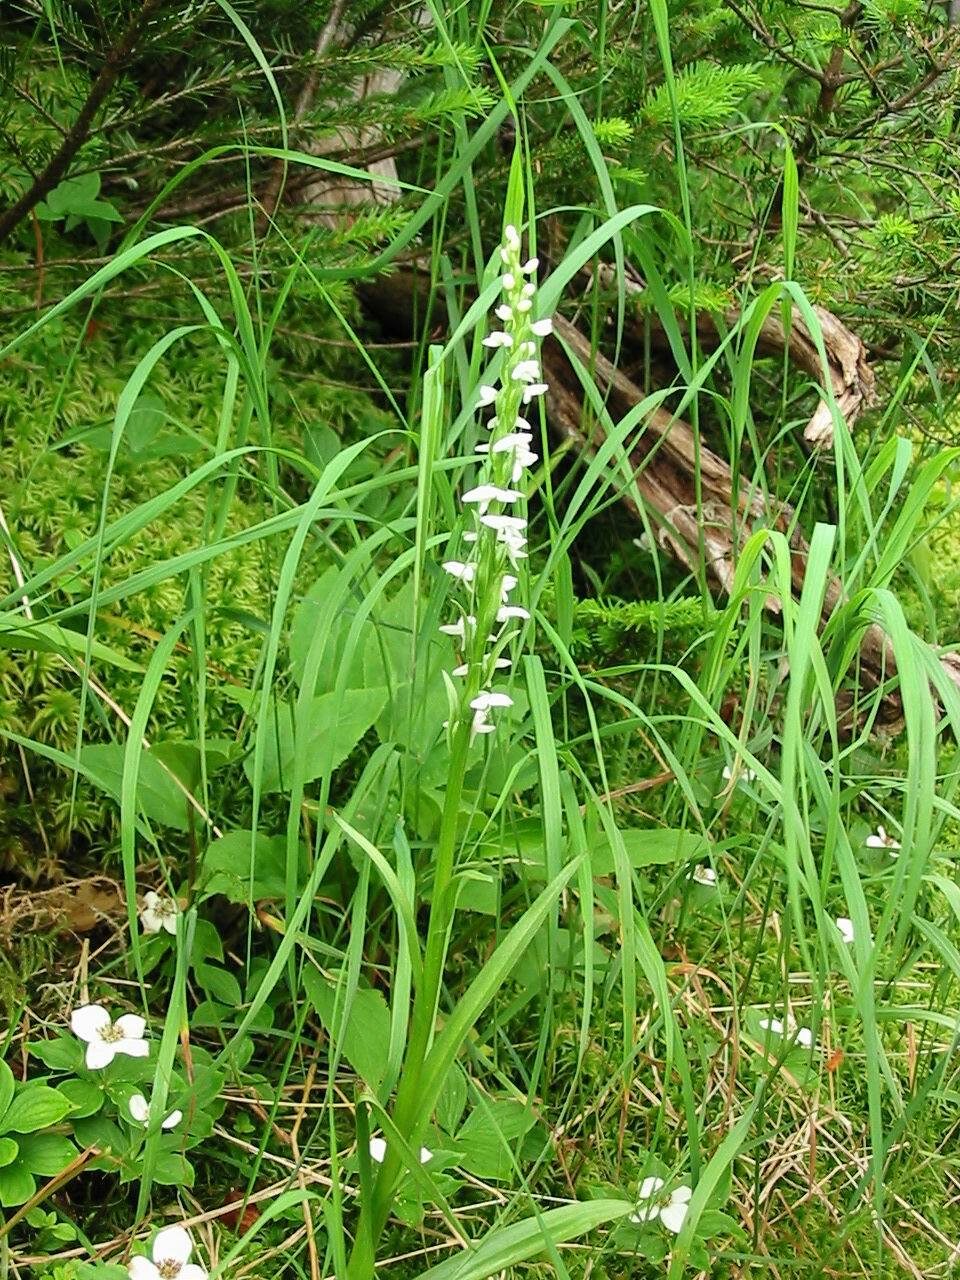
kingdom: Plantae
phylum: Tracheophyta
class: Liliopsida
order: Asparagales
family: Orchidaceae
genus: Platanthera
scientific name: Platanthera dilatata
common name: Bog candles
